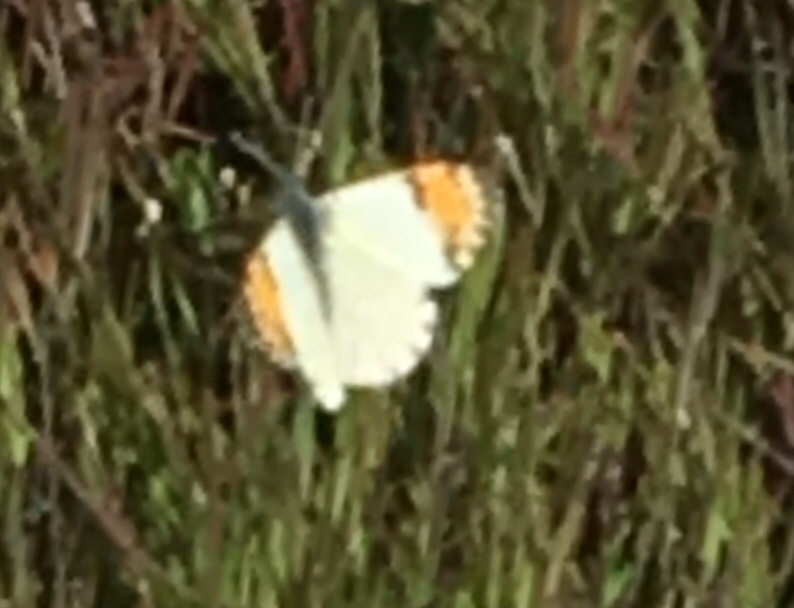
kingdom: Animalia
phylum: Arthropoda
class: Insecta
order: Lepidoptera
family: Pieridae
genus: Anthocharis
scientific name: Anthocharis sara
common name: Sara's orangetip
